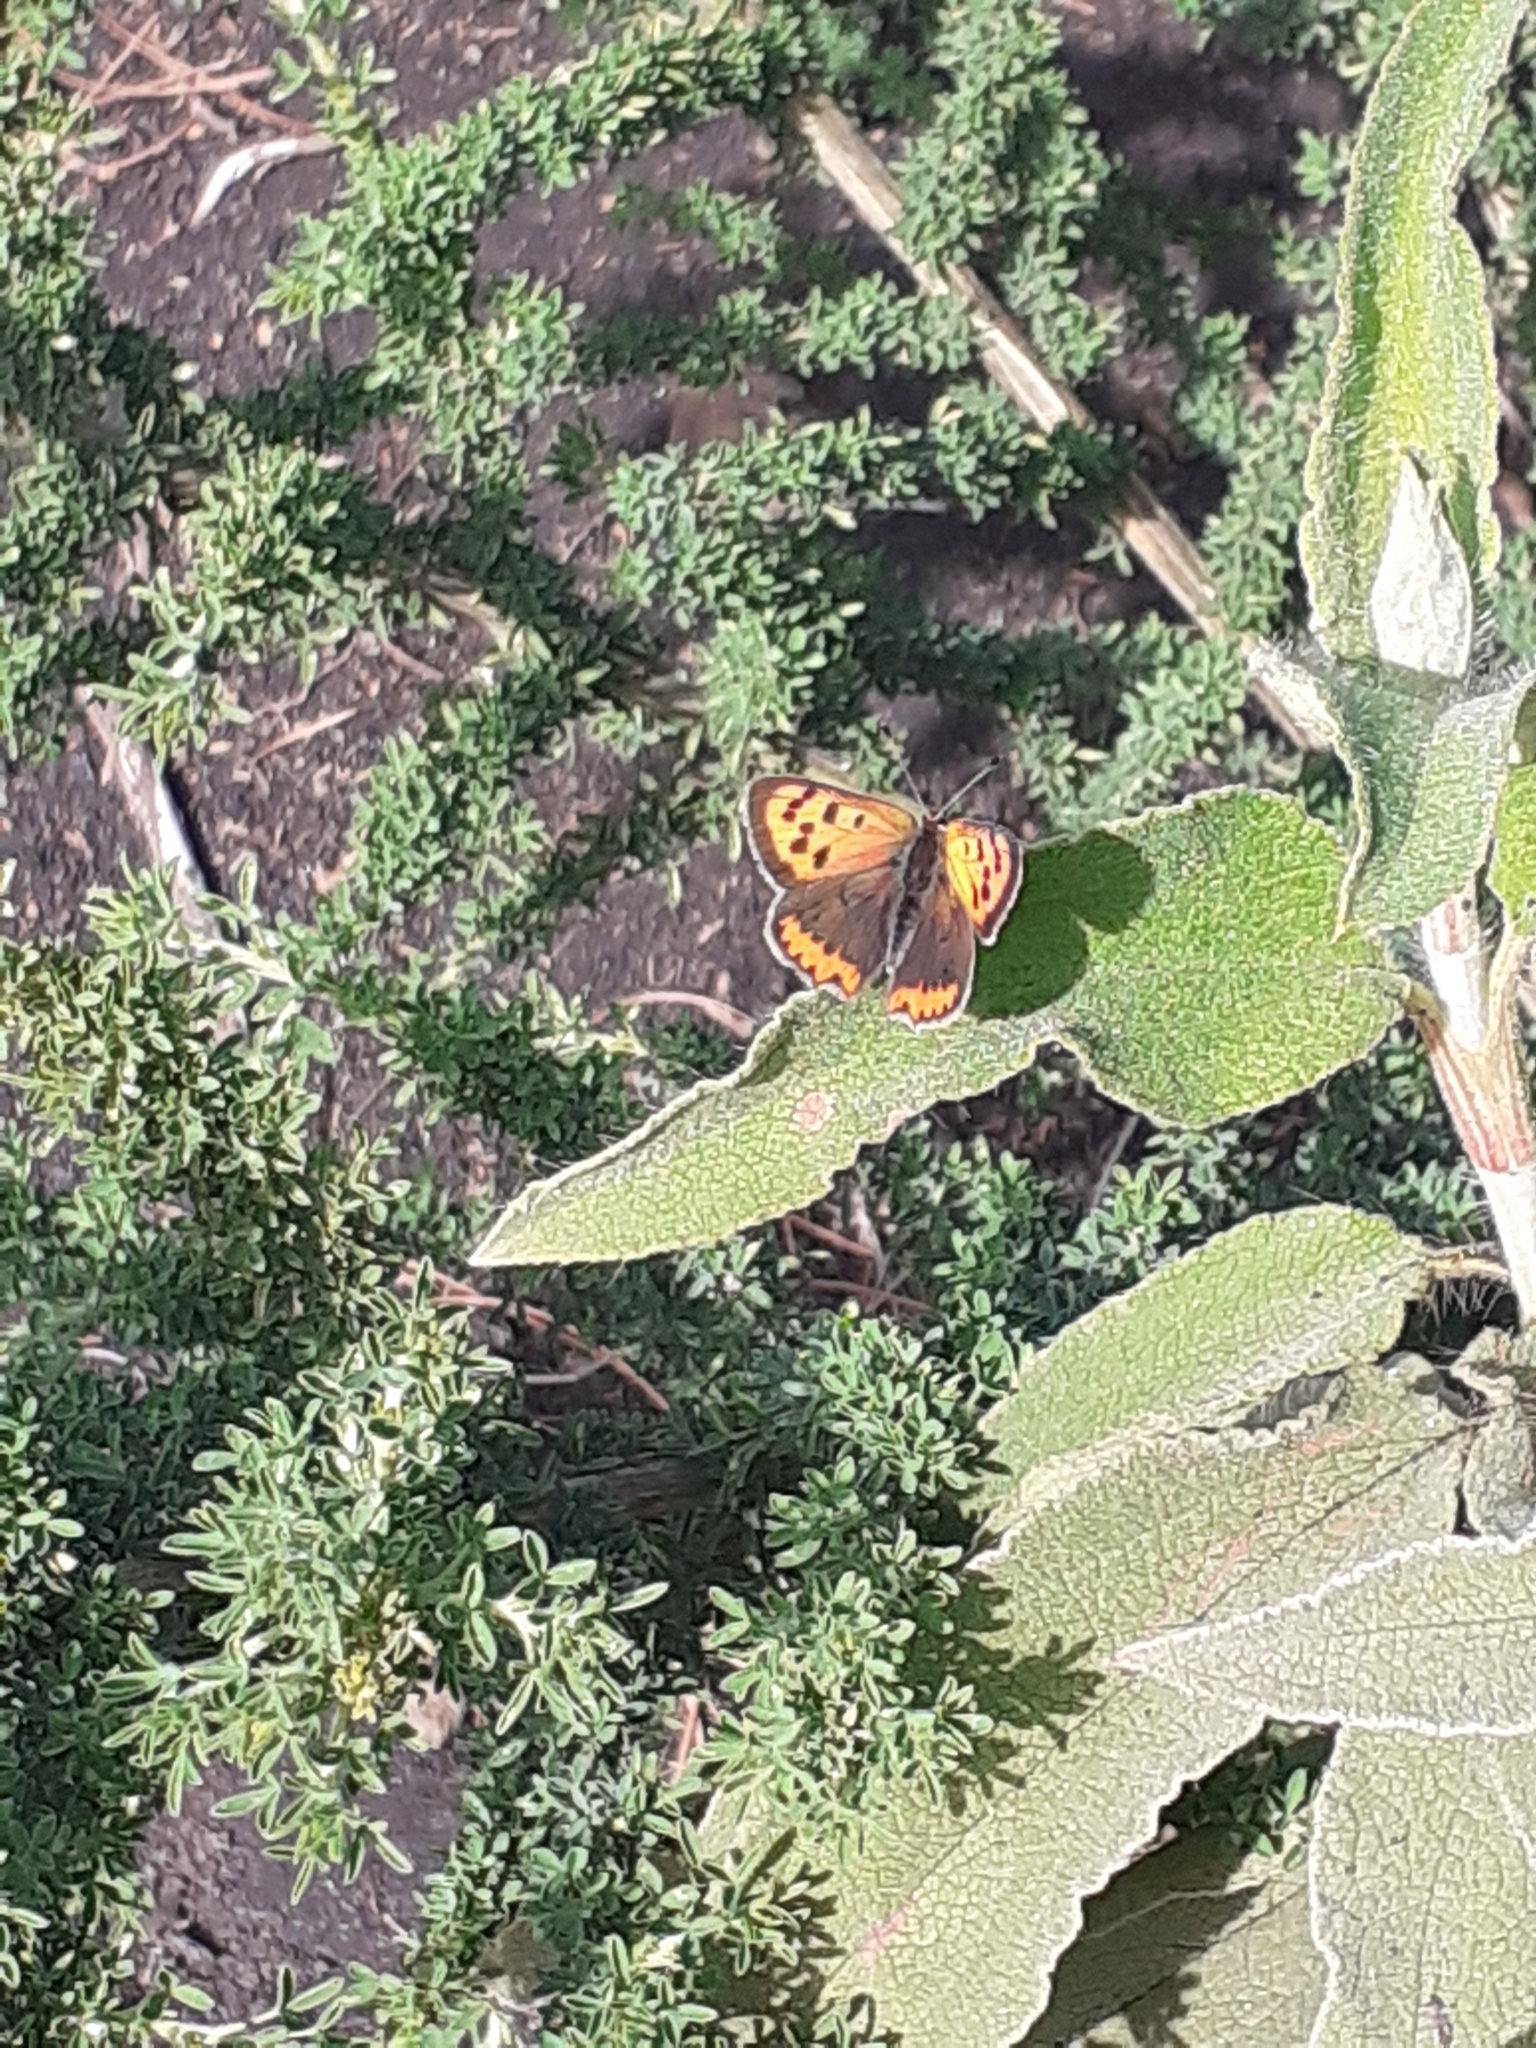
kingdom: Animalia
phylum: Arthropoda
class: Insecta
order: Lepidoptera
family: Lycaenidae
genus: Lycaena
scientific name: Lycaena phlaeas
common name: Small copper
